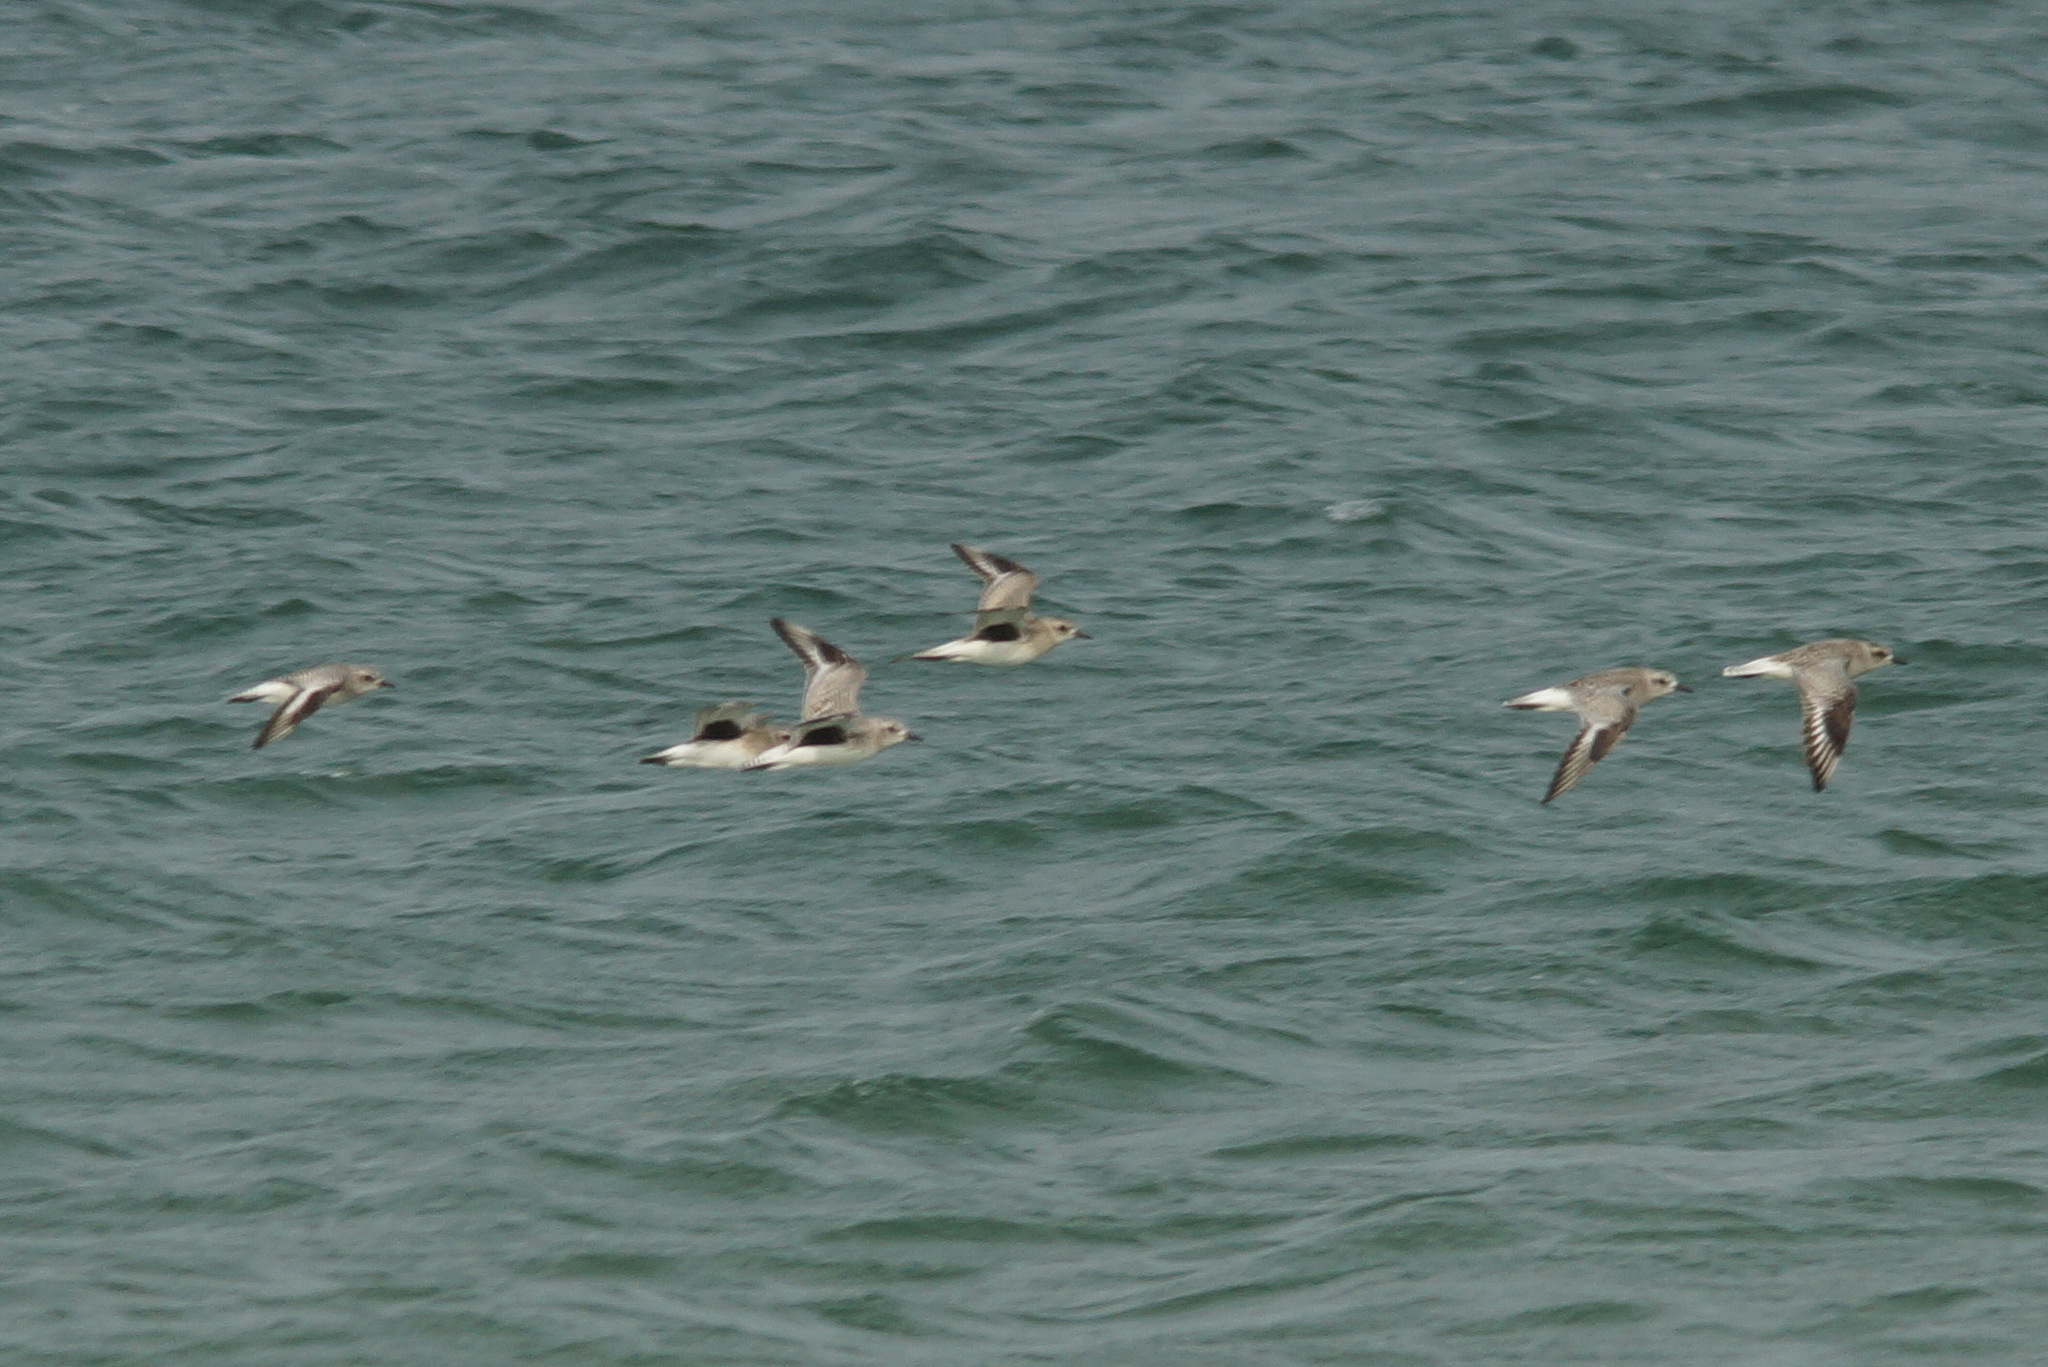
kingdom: Animalia
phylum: Chordata
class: Aves
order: Charadriiformes
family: Charadriidae
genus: Pluvialis
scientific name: Pluvialis squatarola
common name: Grey plover
